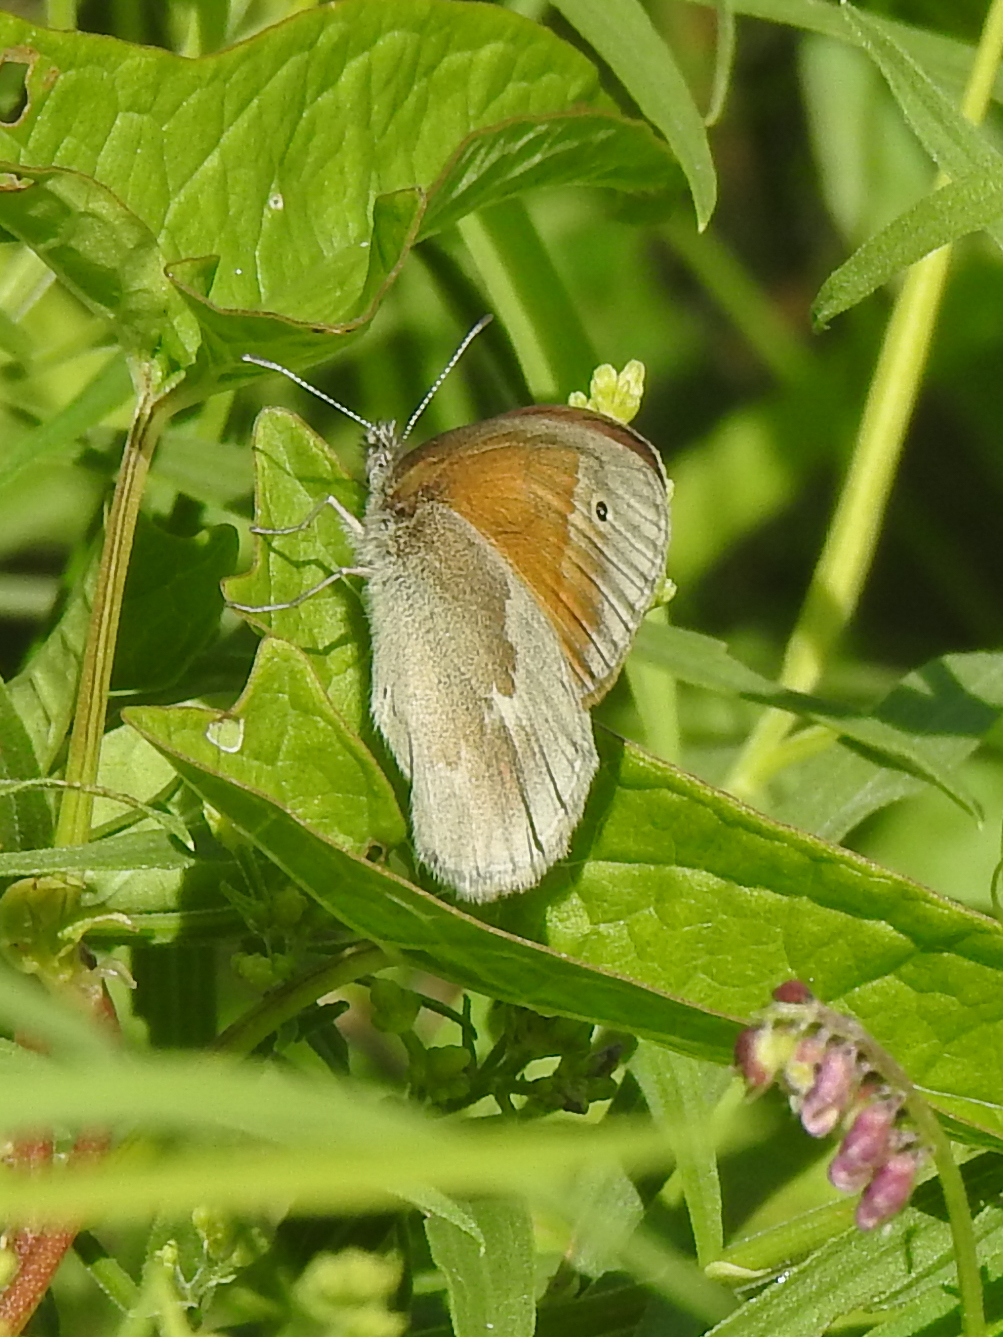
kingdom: Animalia
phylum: Arthropoda
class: Insecta
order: Lepidoptera
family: Nymphalidae
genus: Coenonympha
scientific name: Coenonympha california
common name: Common ringlet
